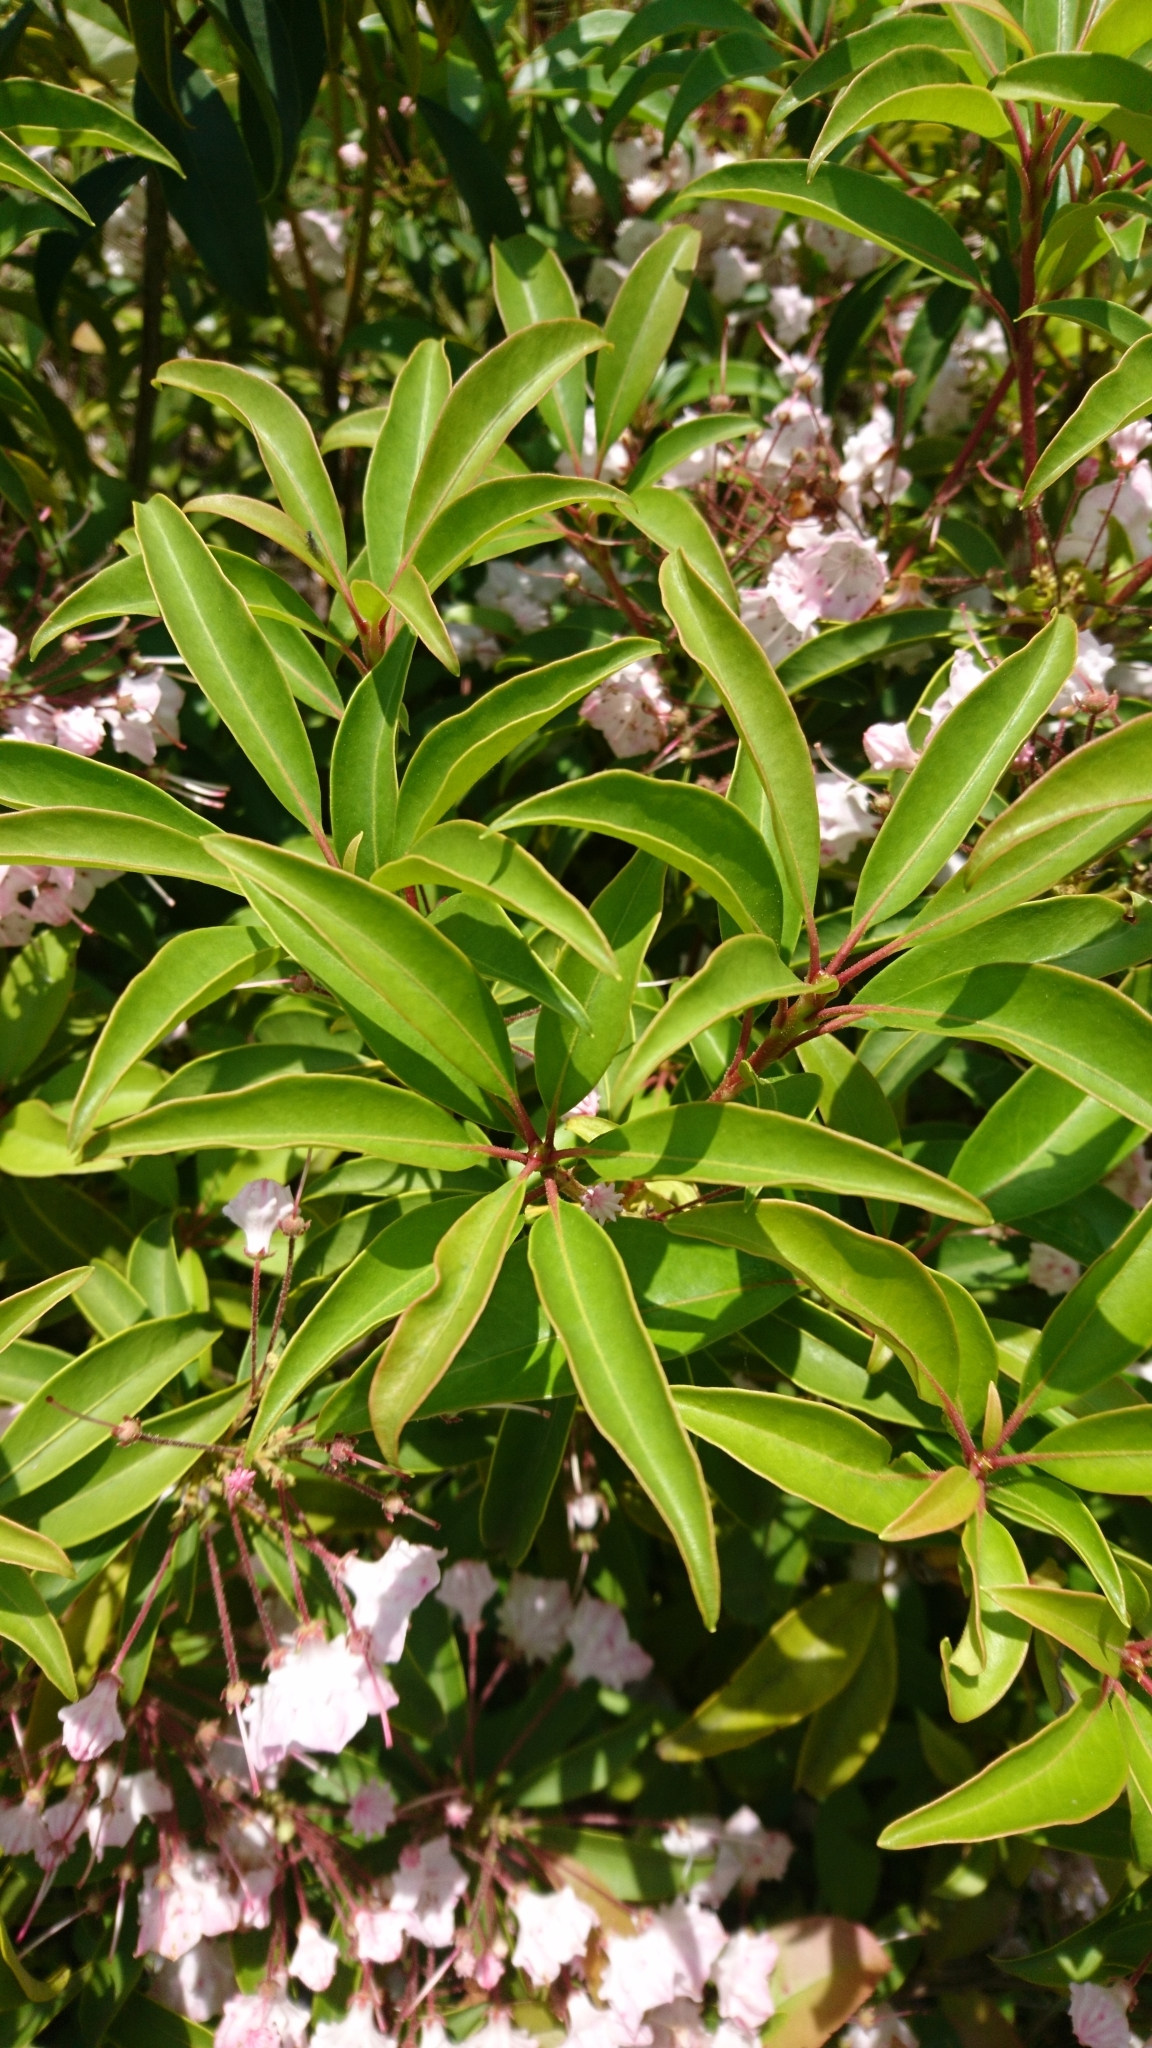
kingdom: Plantae
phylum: Tracheophyta
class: Magnoliopsida
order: Ericales
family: Ericaceae
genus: Kalmia
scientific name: Kalmia latifolia
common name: Mountain-laurel
